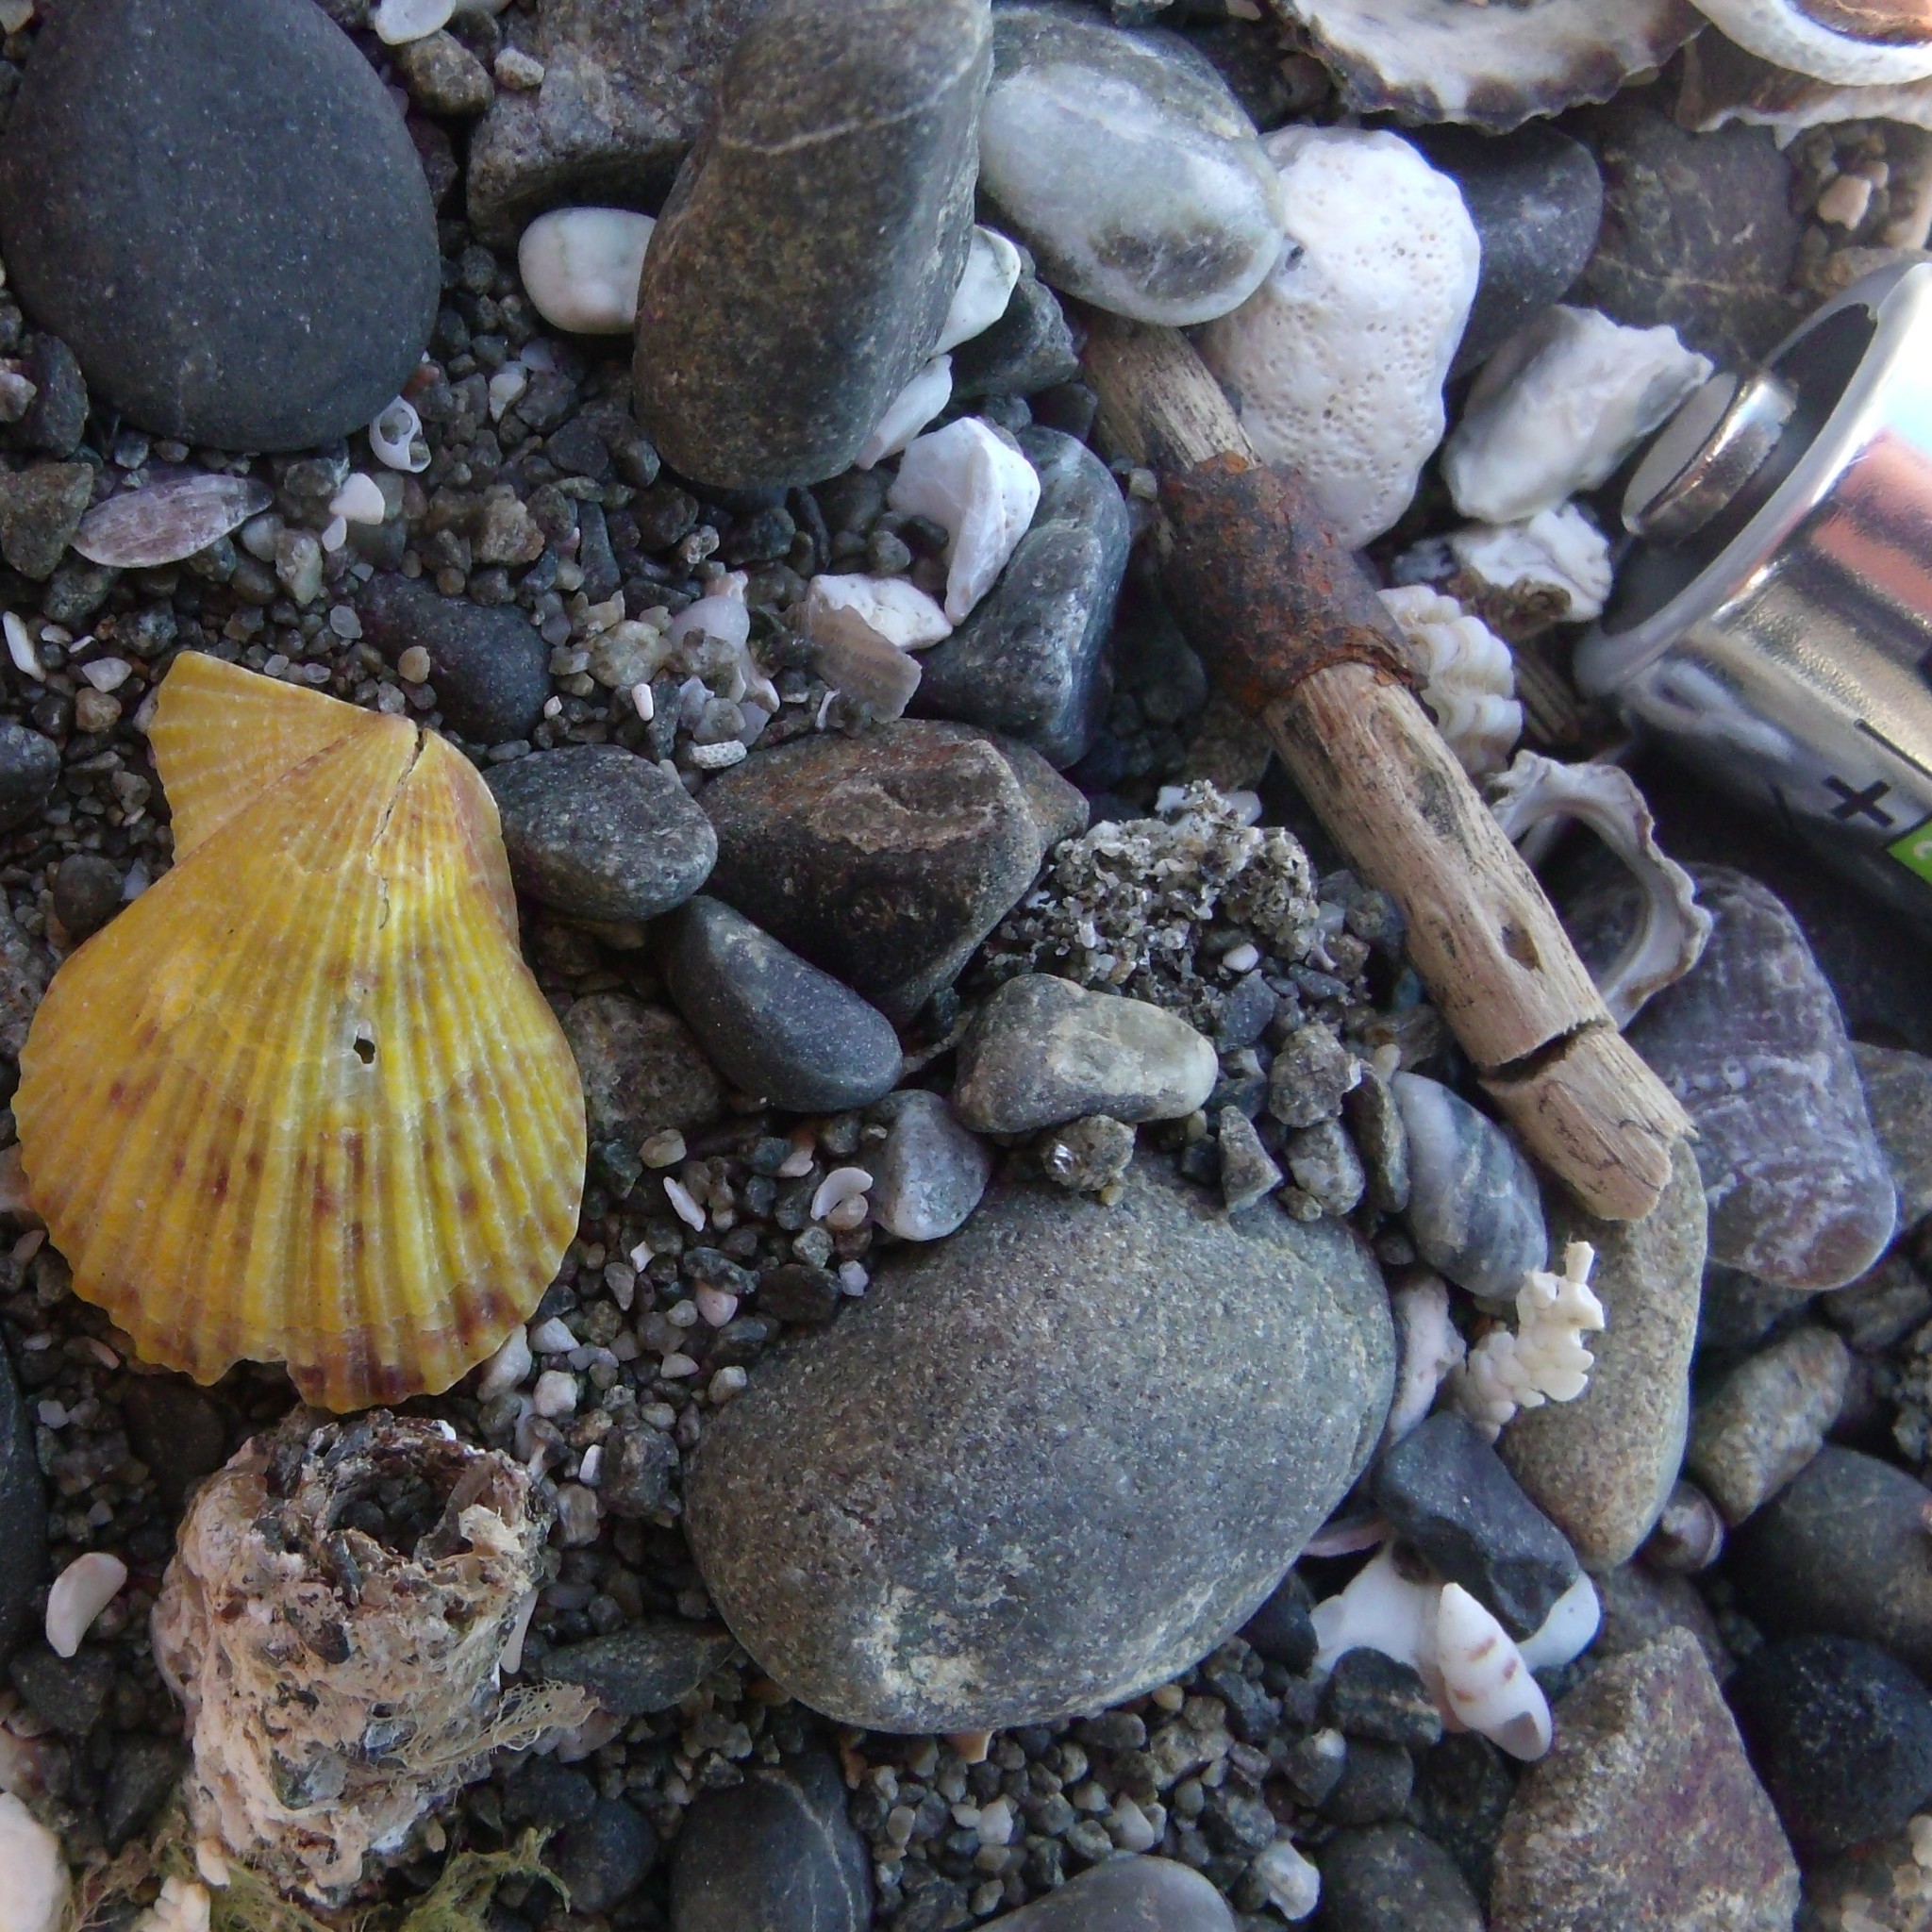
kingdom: Animalia
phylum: Mollusca
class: Bivalvia
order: Pectinida
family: Pectinidae
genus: Talochlamys
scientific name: Talochlamys zelandiae
